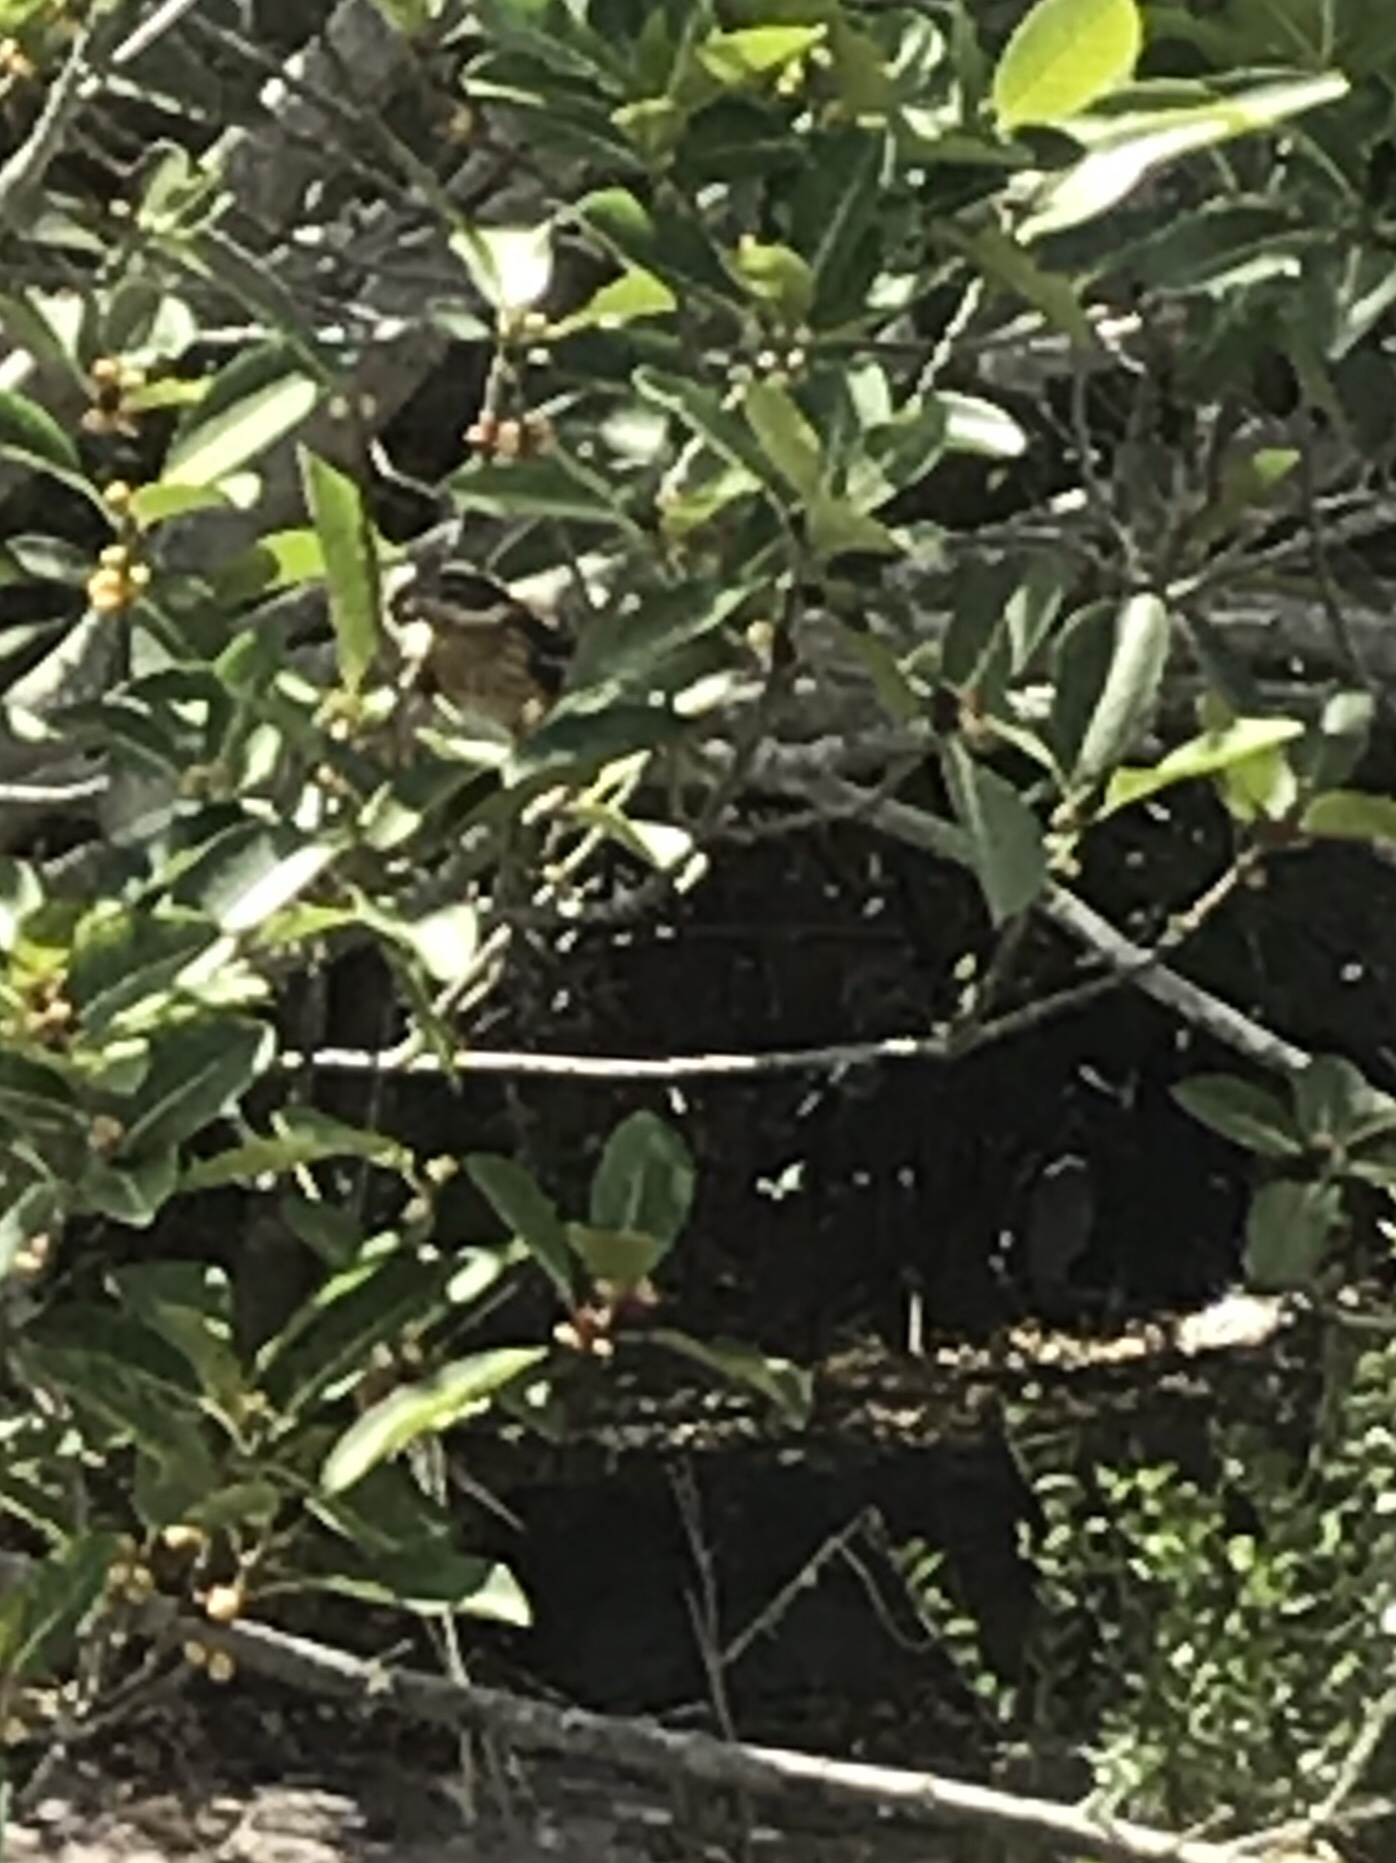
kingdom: Animalia
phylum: Chordata
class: Aves
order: Passeriformes
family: Cardinalidae
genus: Pheucticus
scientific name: Pheucticus ludovicianus
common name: Rose-breasted grosbeak
